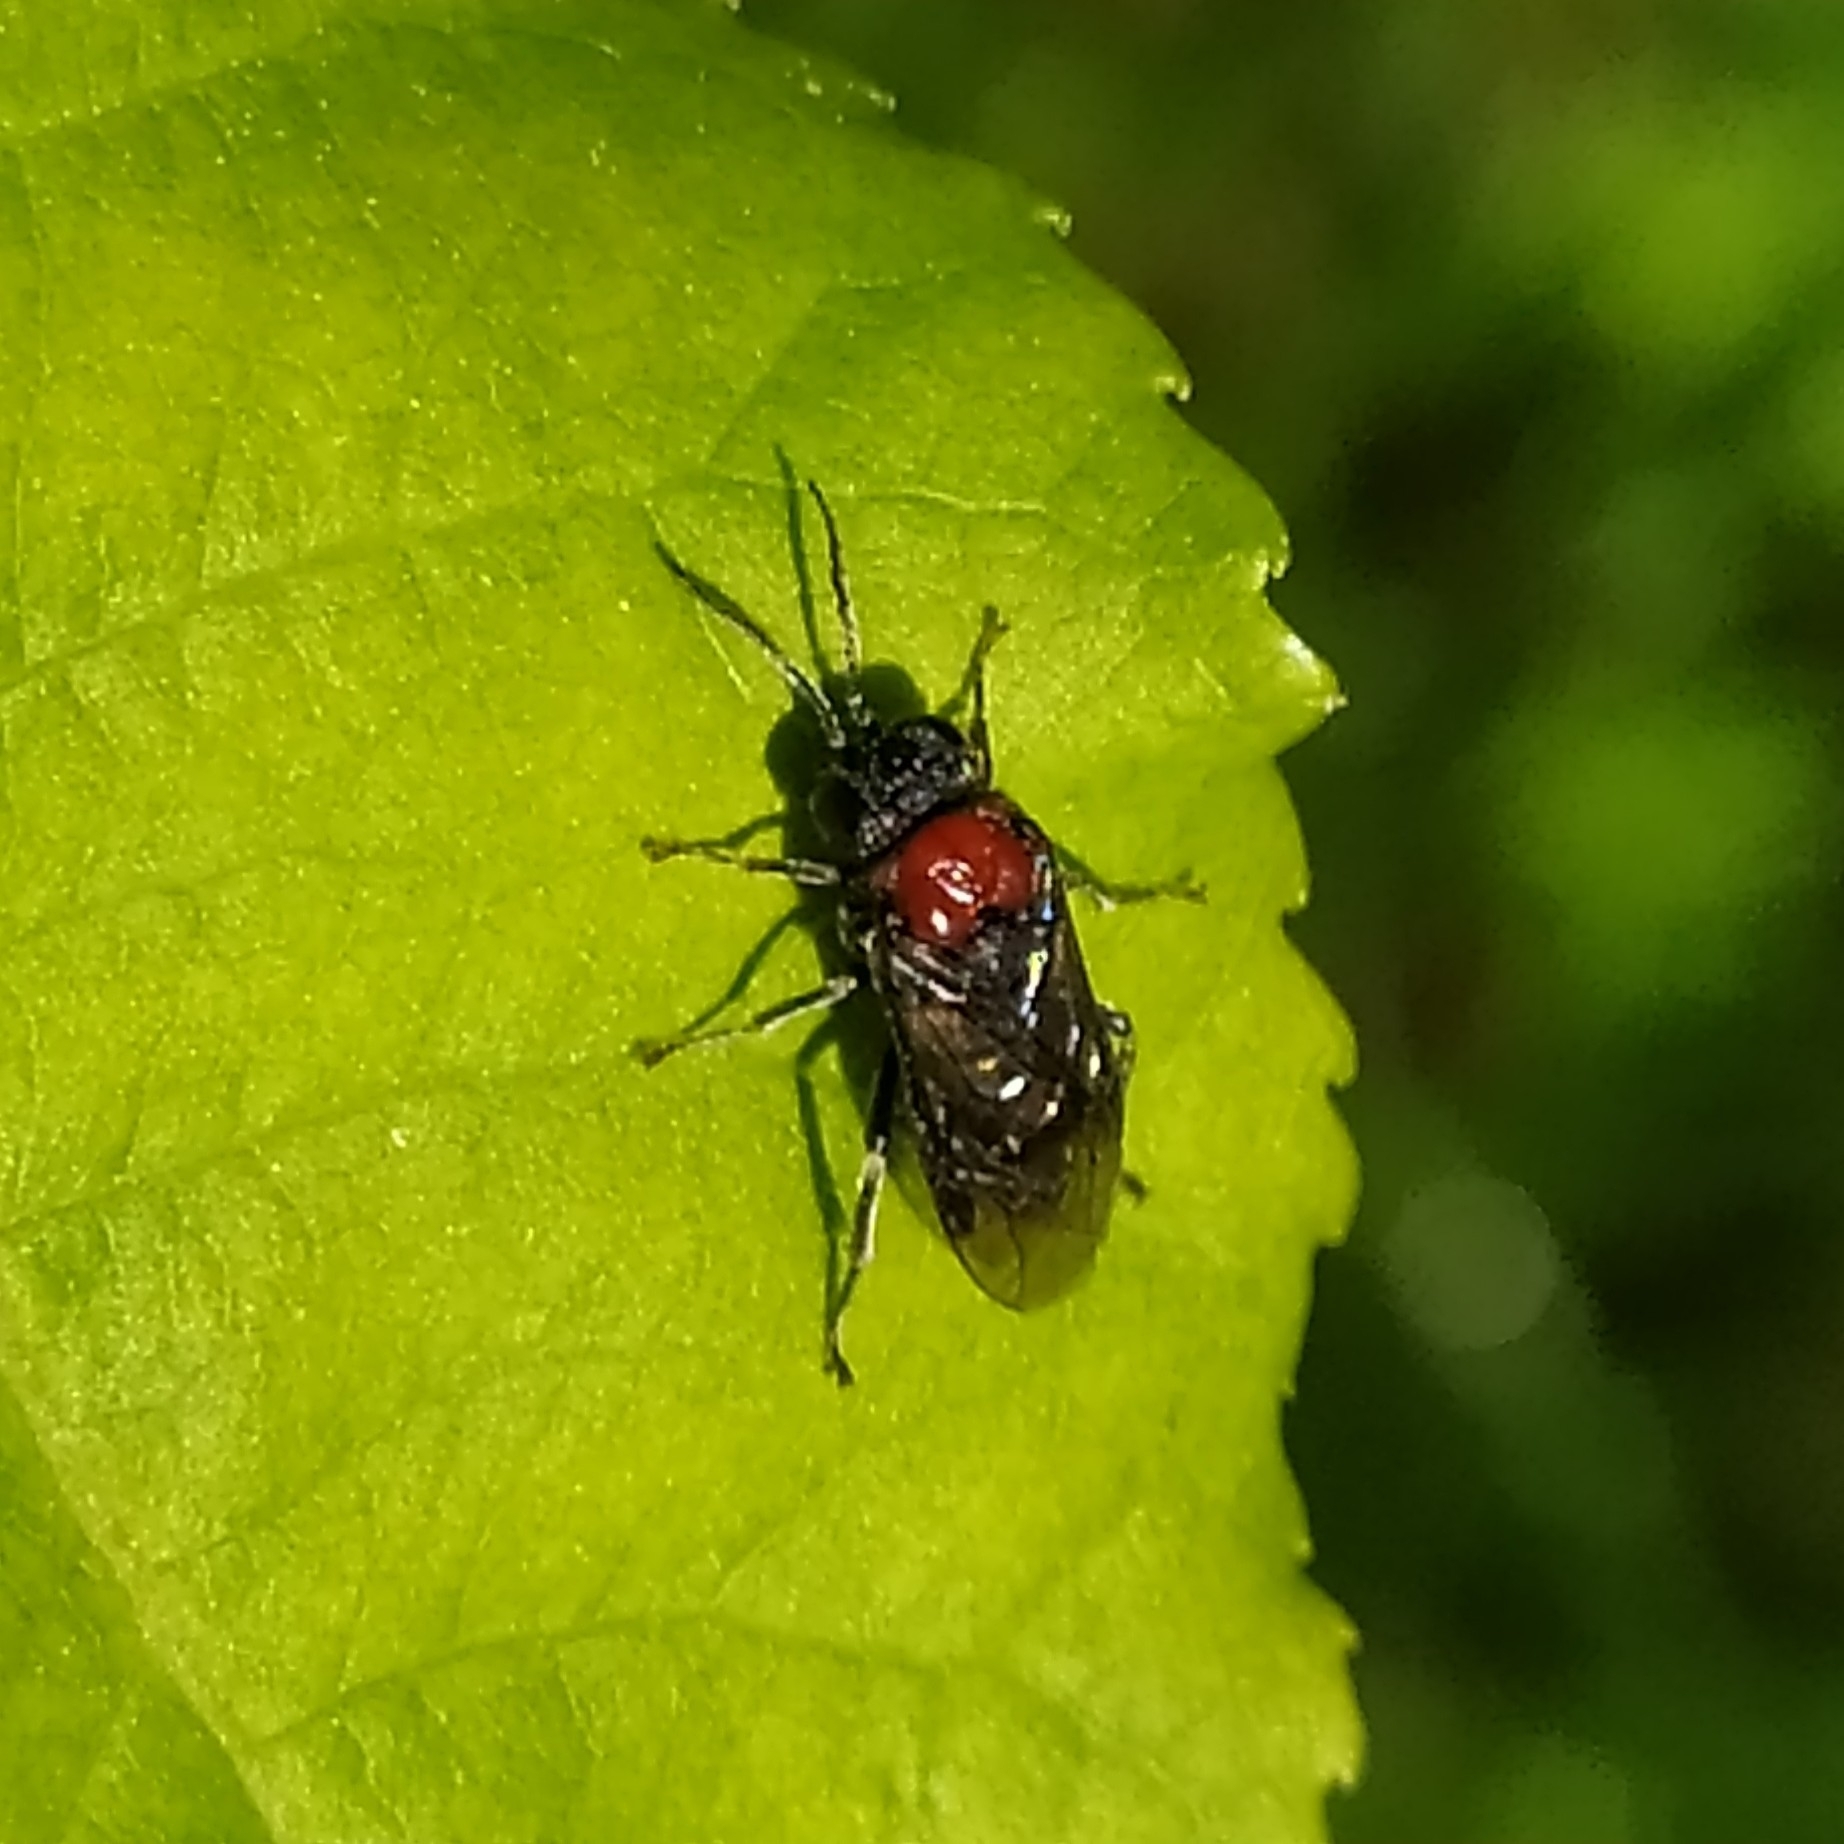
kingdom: Animalia
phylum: Arthropoda
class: Insecta
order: Hymenoptera
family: Tenthredinidae
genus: Eriocampa
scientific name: Eriocampa ovata
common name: Alder wooly sawfly
